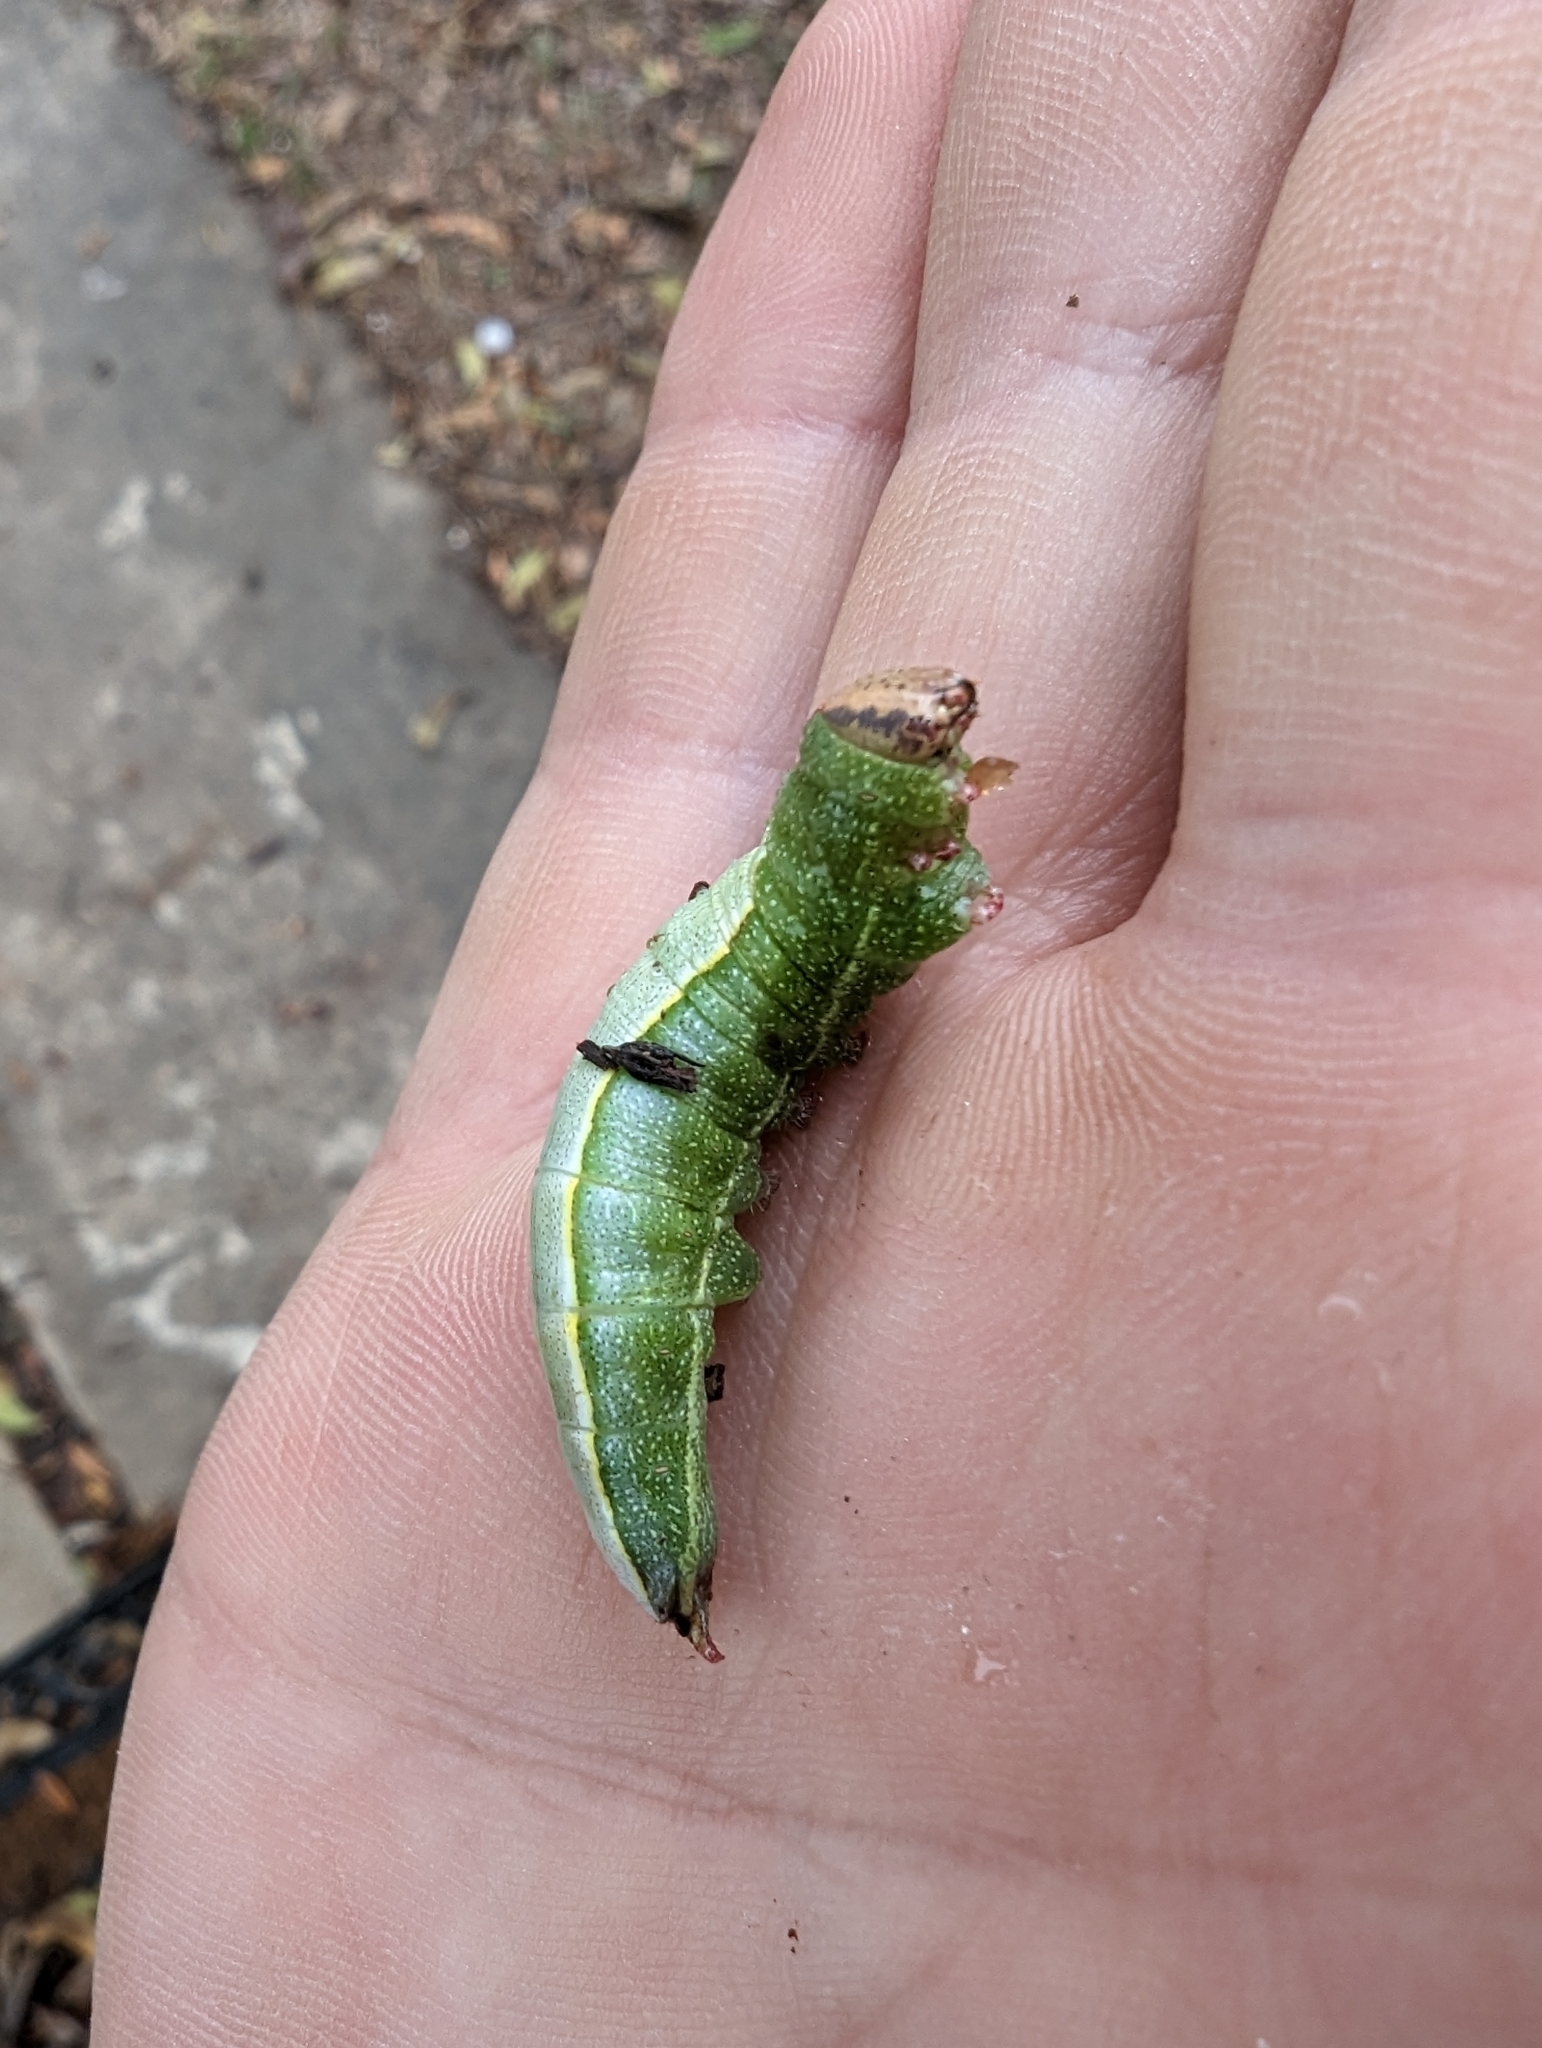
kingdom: Animalia
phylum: Arthropoda
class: Insecta
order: Lepidoptera
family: Notodontidae
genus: Heterocampa
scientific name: Heterocampa astartoides
